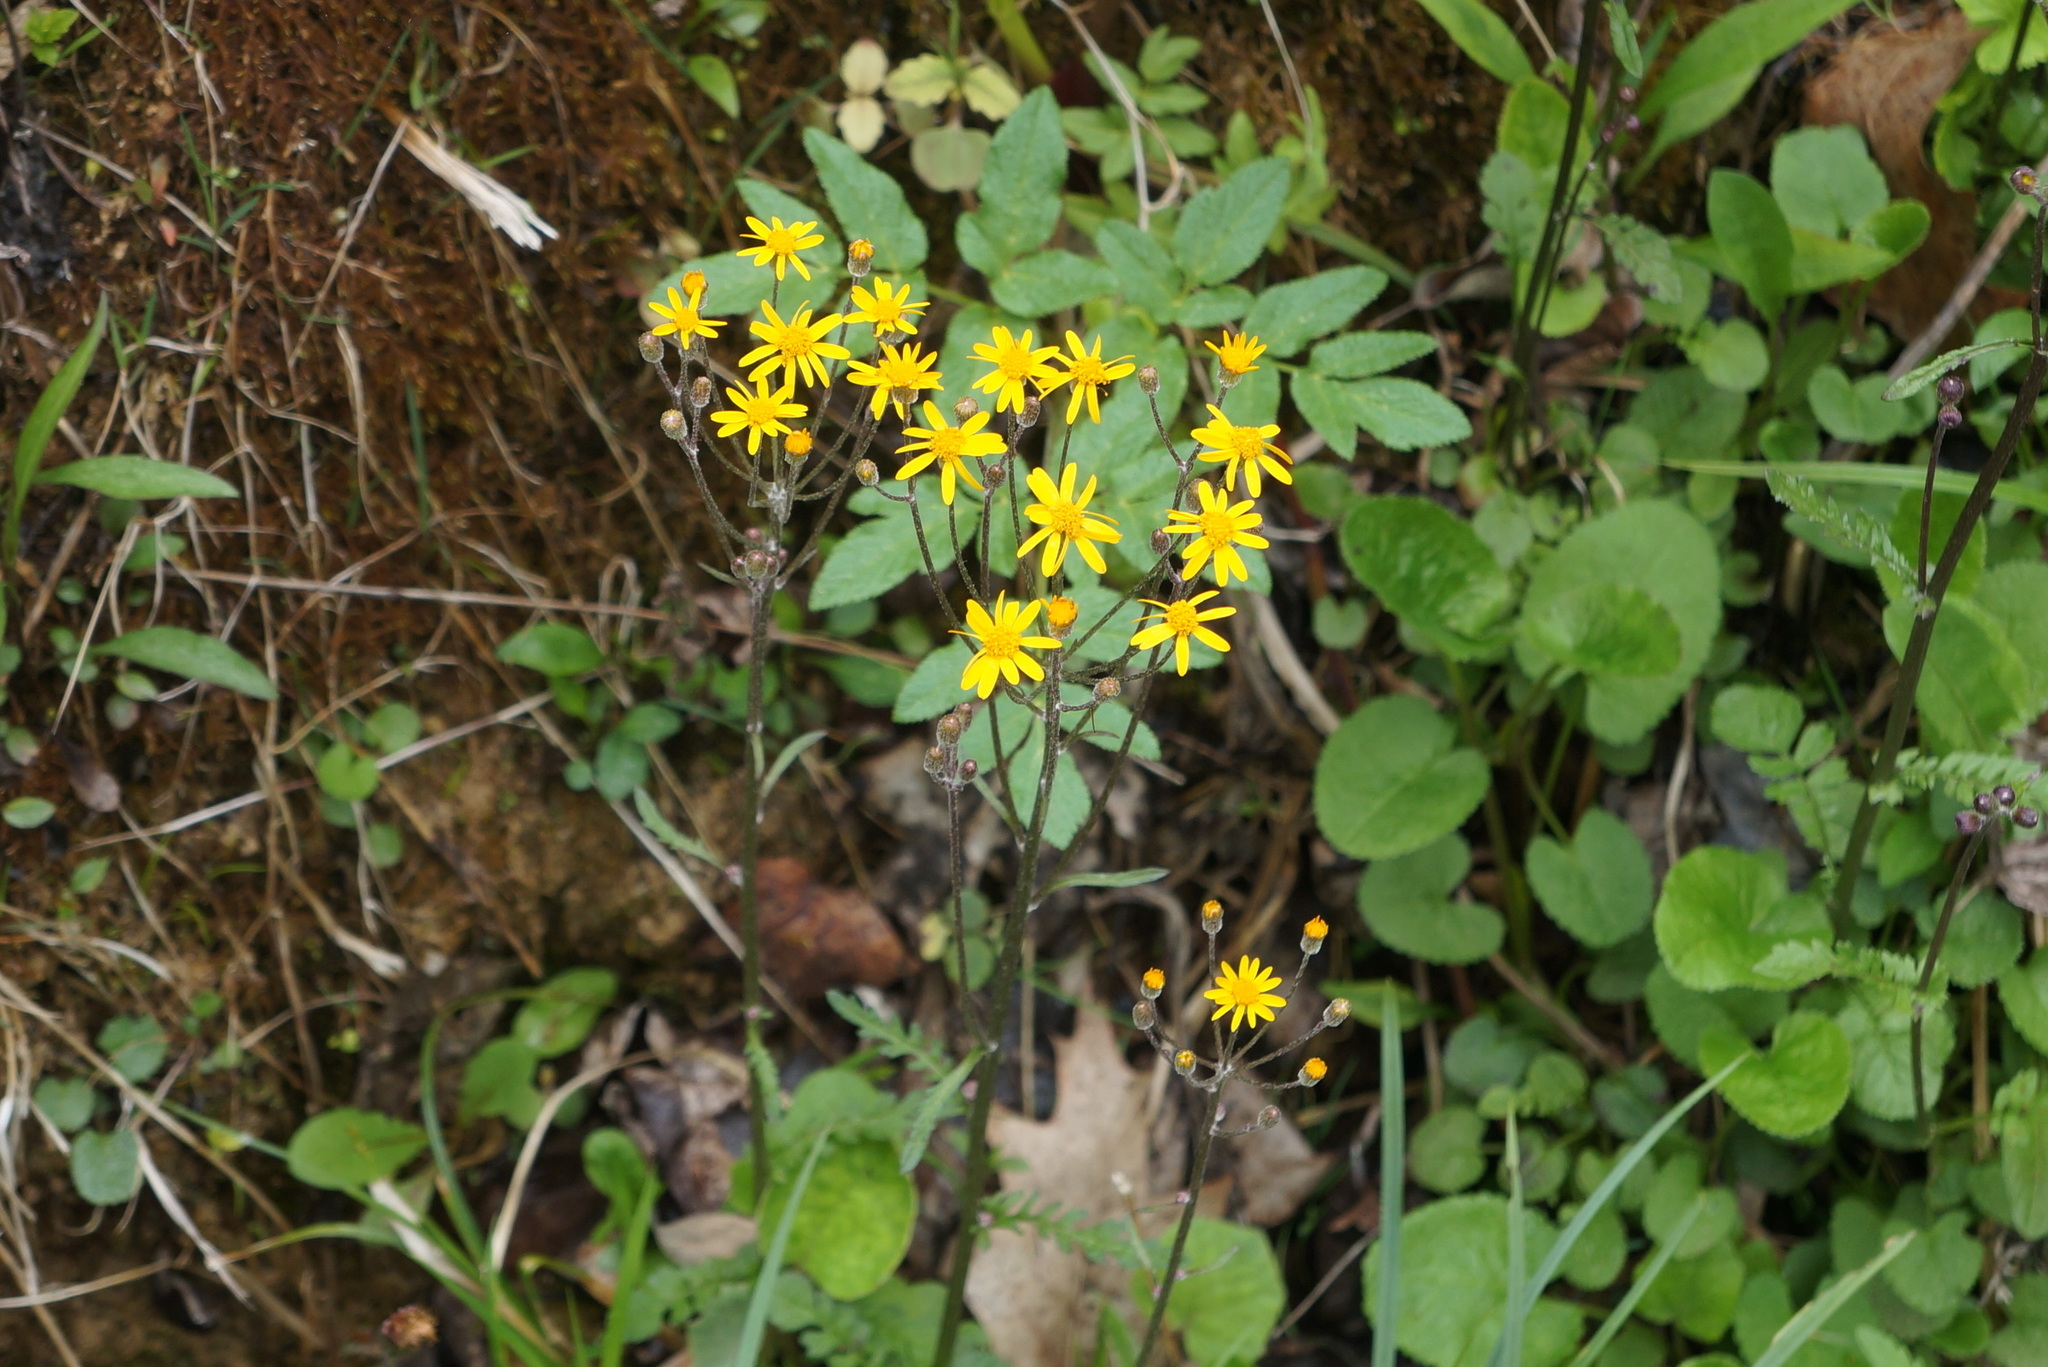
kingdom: Plantae
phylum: Tracheophyta
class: Magnoliopsida
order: Asterales
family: Asteraceae
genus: Packera
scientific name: Packera aurea
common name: Golden groundsel
